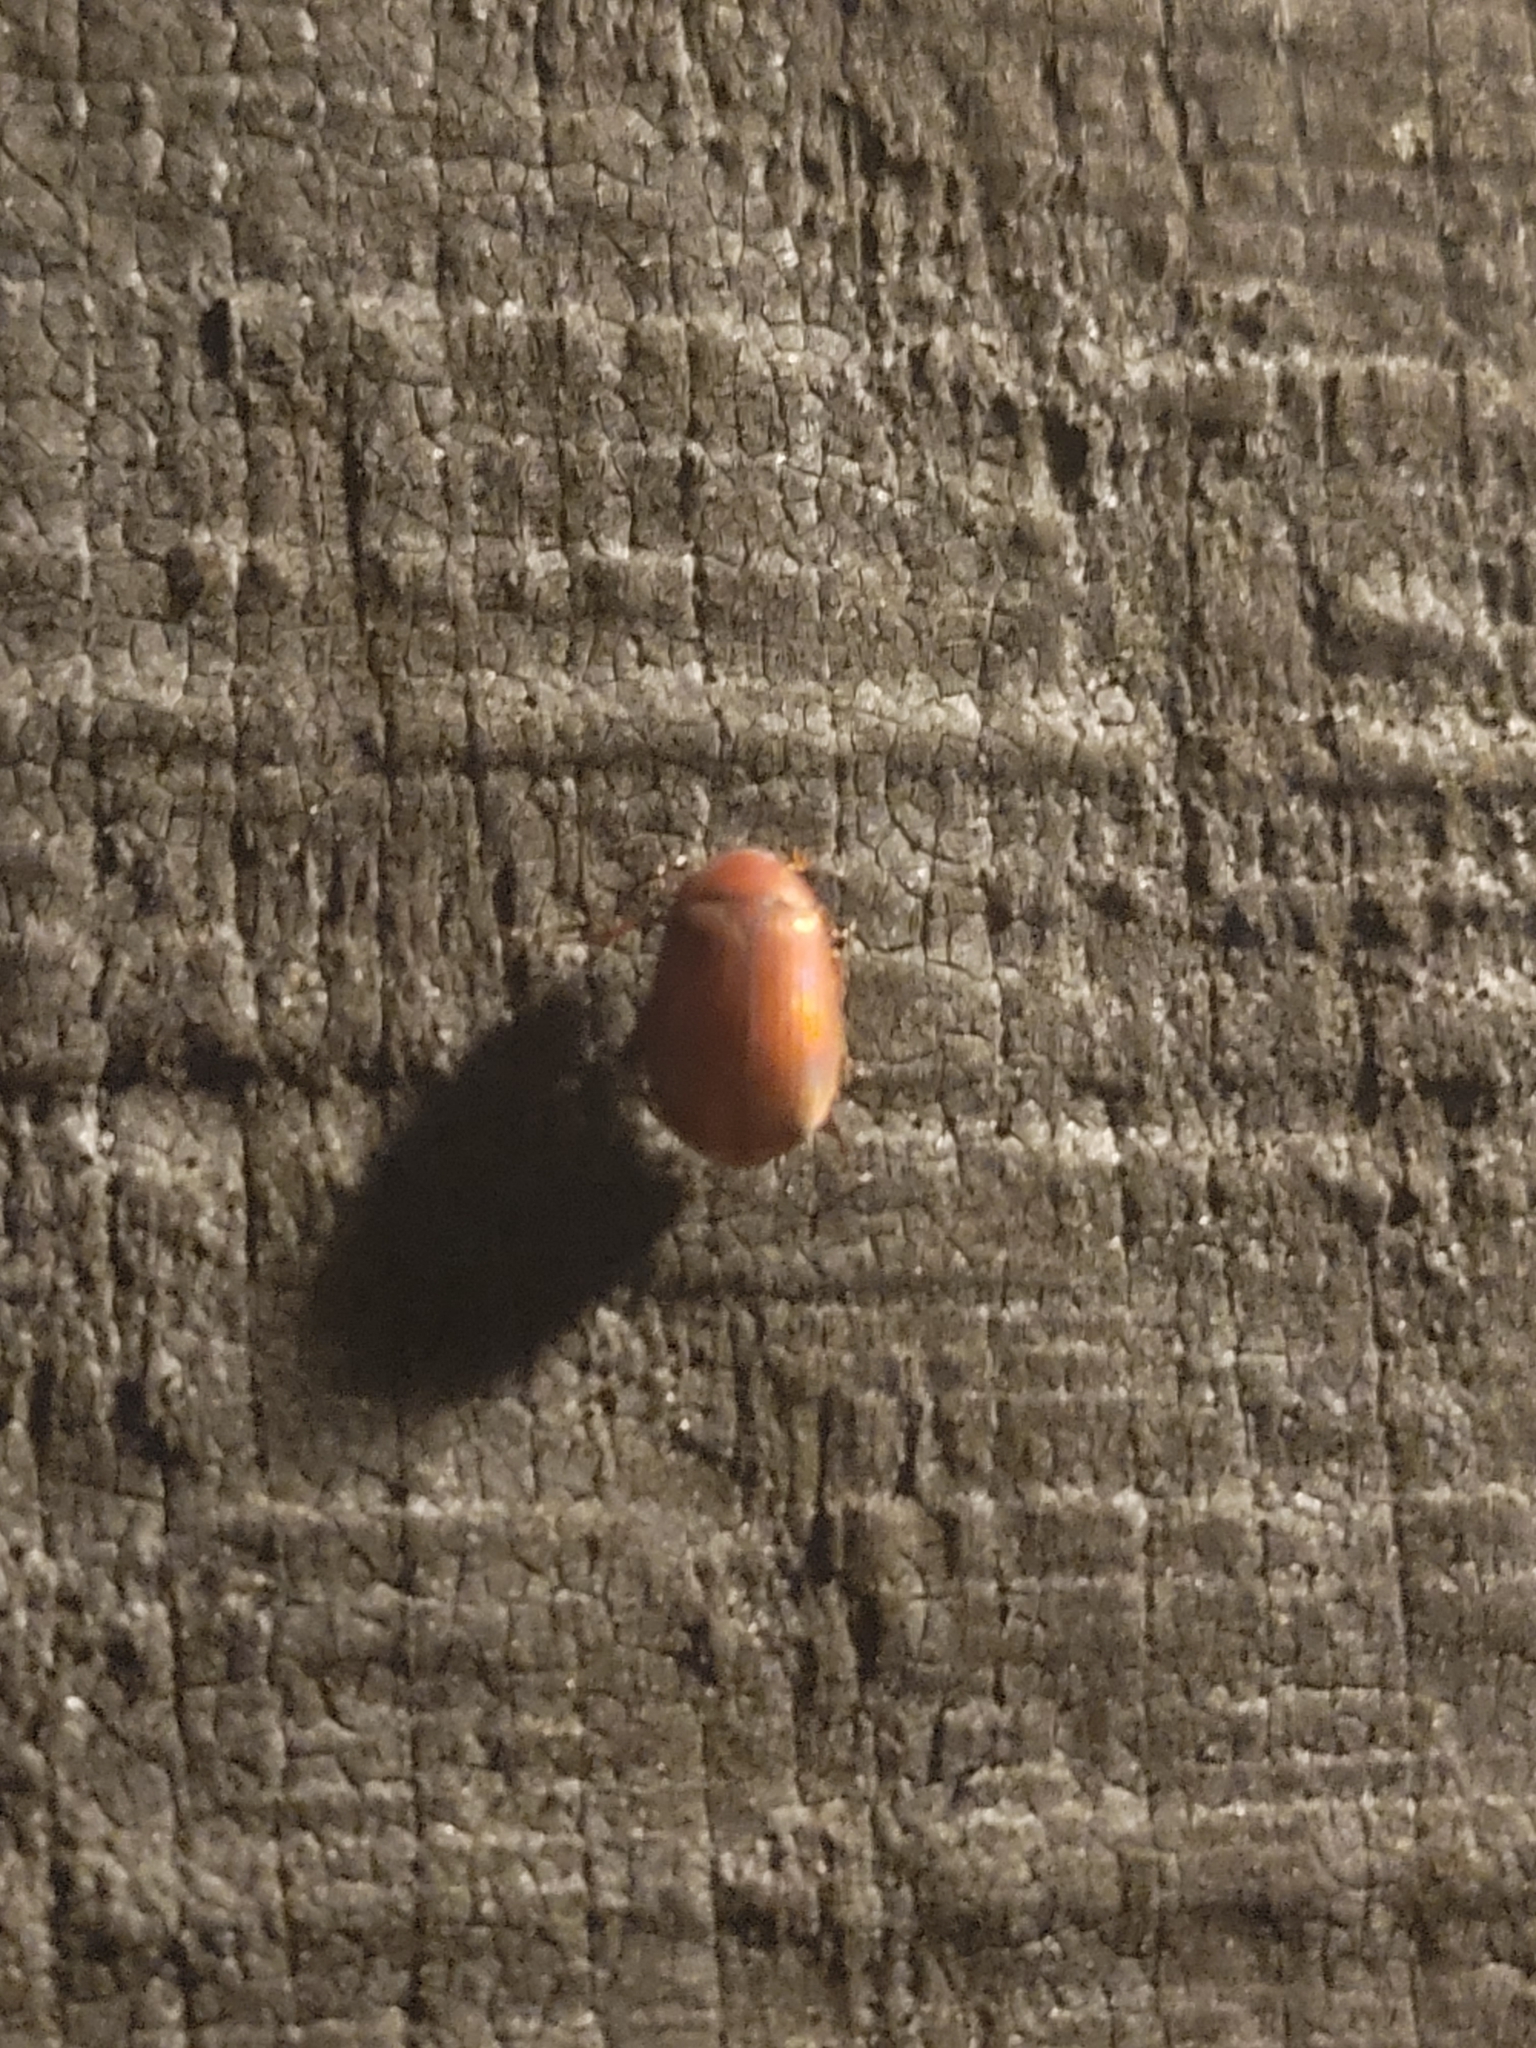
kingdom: Animalia
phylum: Arthropoda
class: Insecta
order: Coleoptera
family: Scarabaeidae
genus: Maladera
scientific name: Maladera formosae
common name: Asiatic garden beetle
